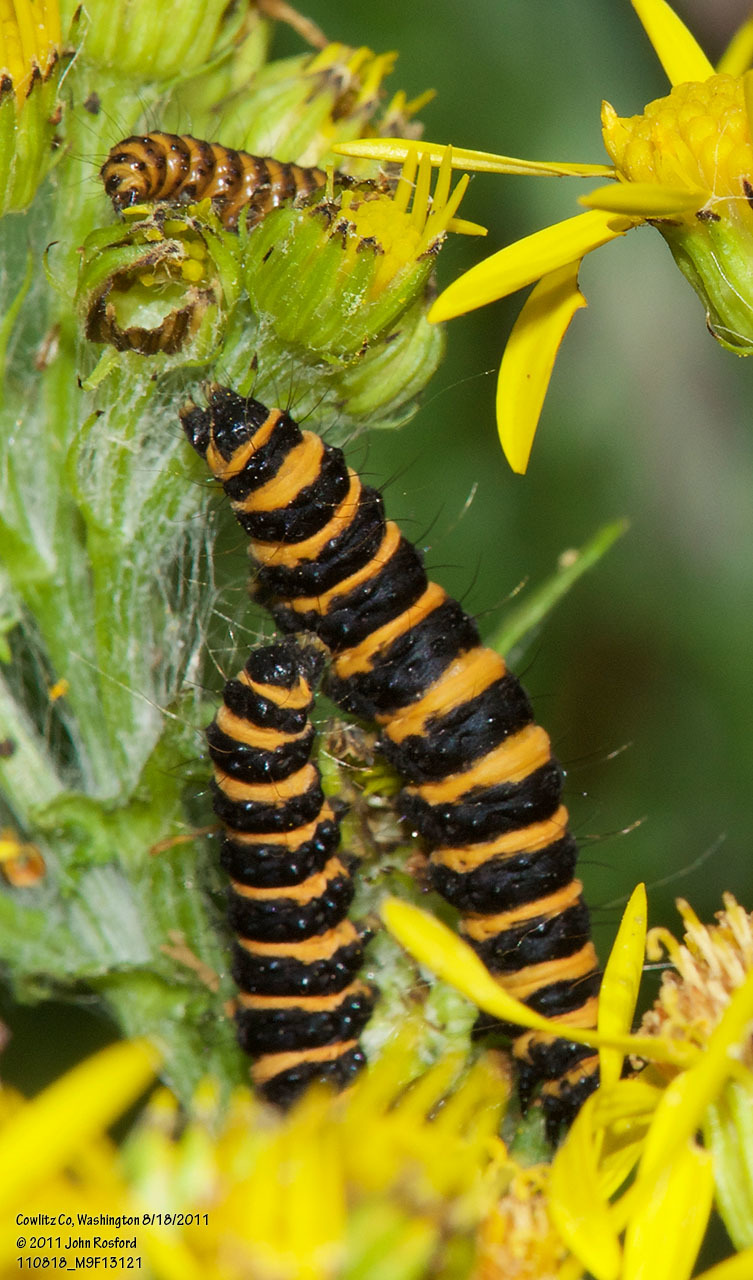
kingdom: Animalia
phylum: Arthropoda
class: Insecta
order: Lepidoptera
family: Erebidae
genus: Tyria
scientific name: Tyria jacobaeae
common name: Cinnabar
